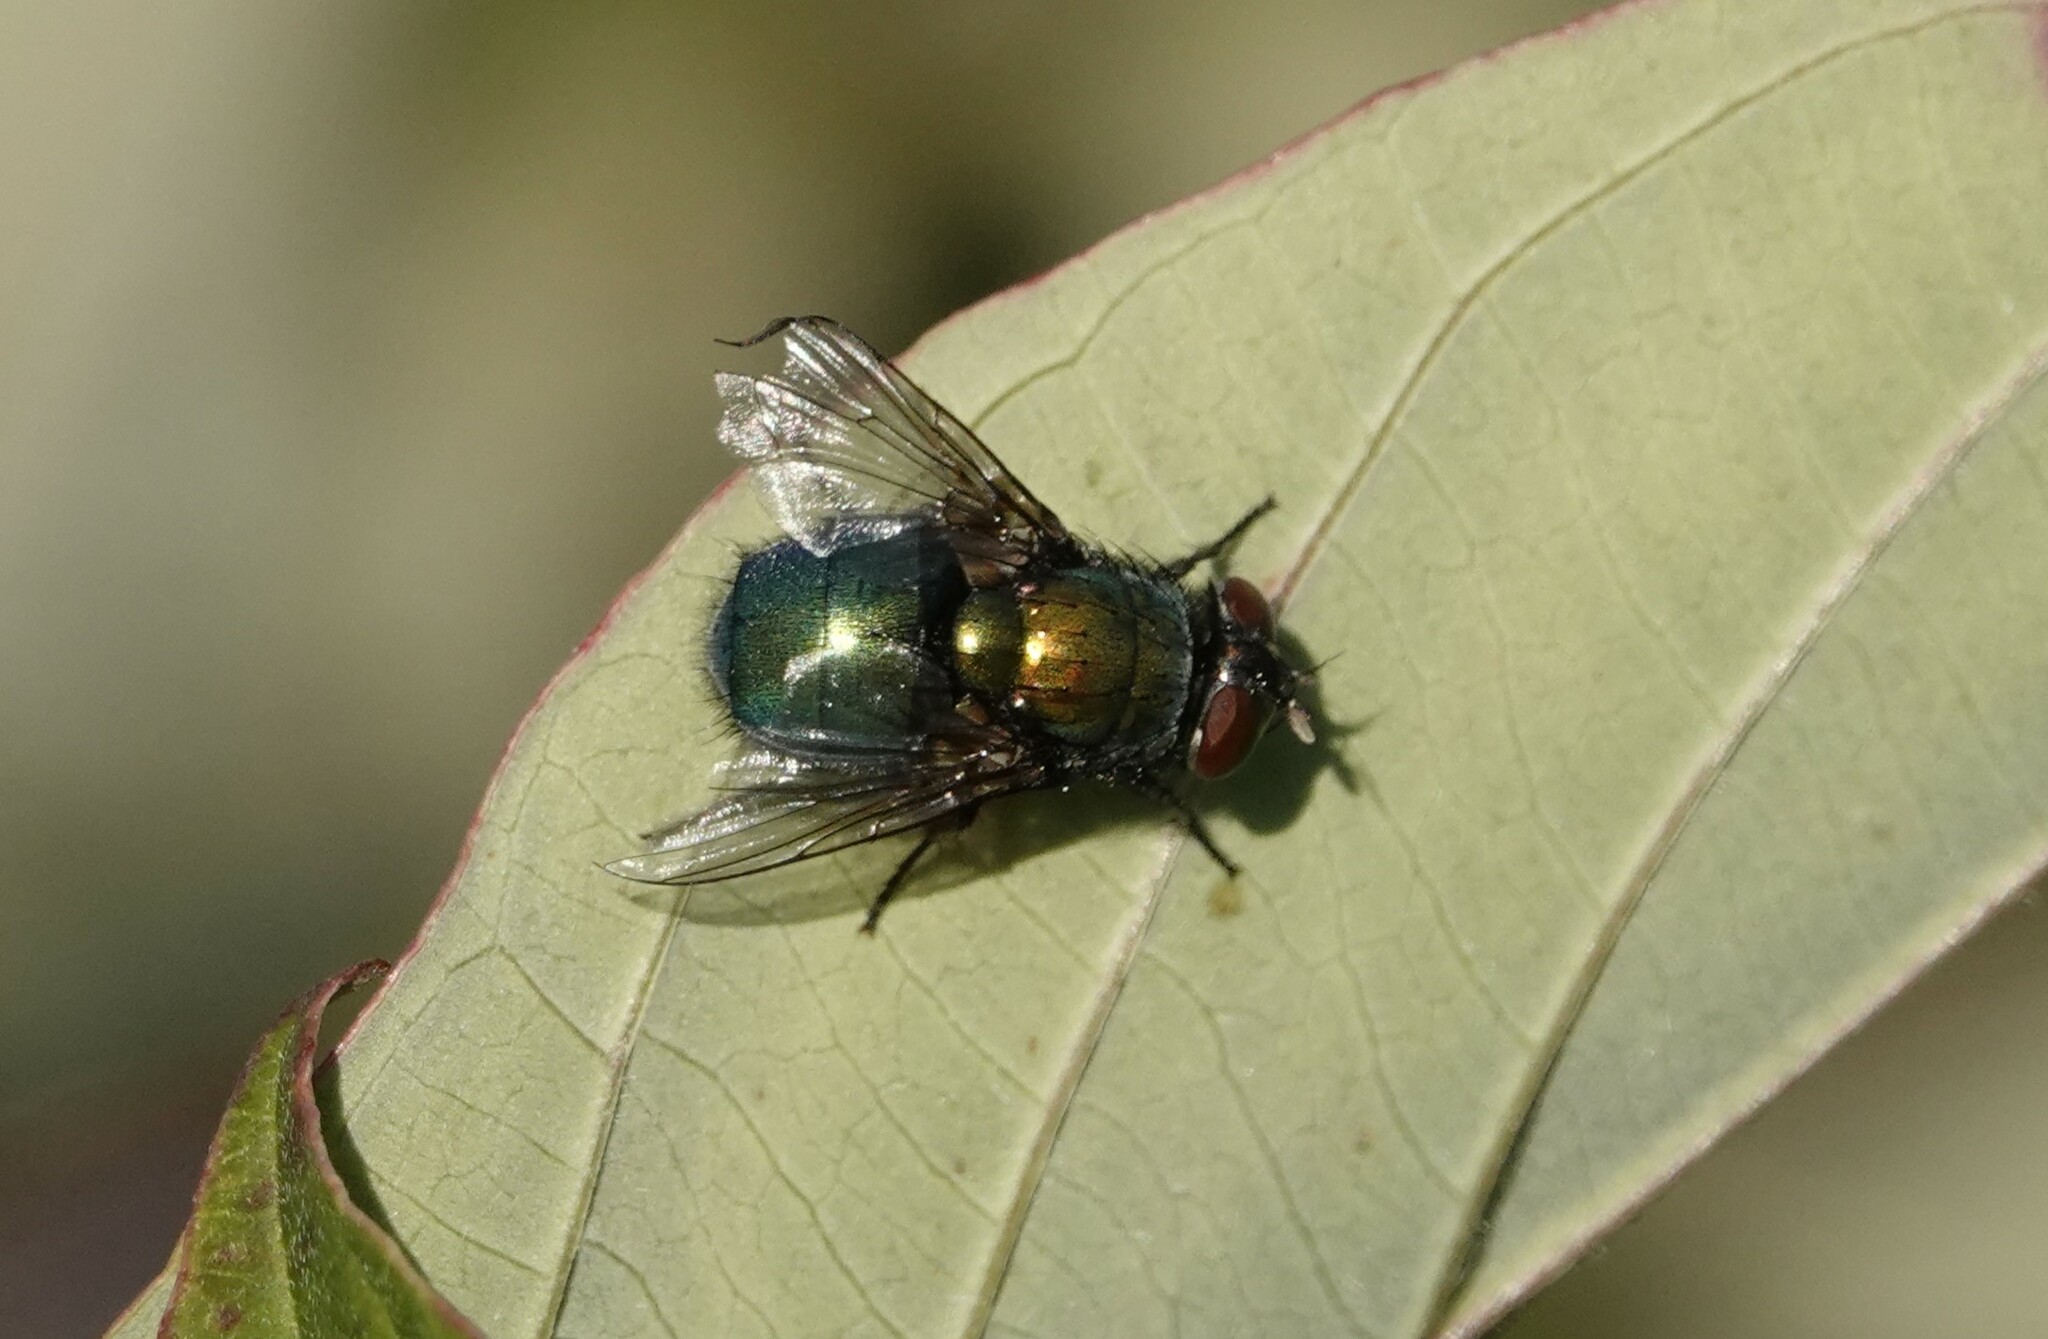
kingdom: Animalia
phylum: Arthropoda
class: Insecta
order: Diptera
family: Calliphoridae
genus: Lucilia
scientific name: Lucilia illustris
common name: Illustrious greenbottle
